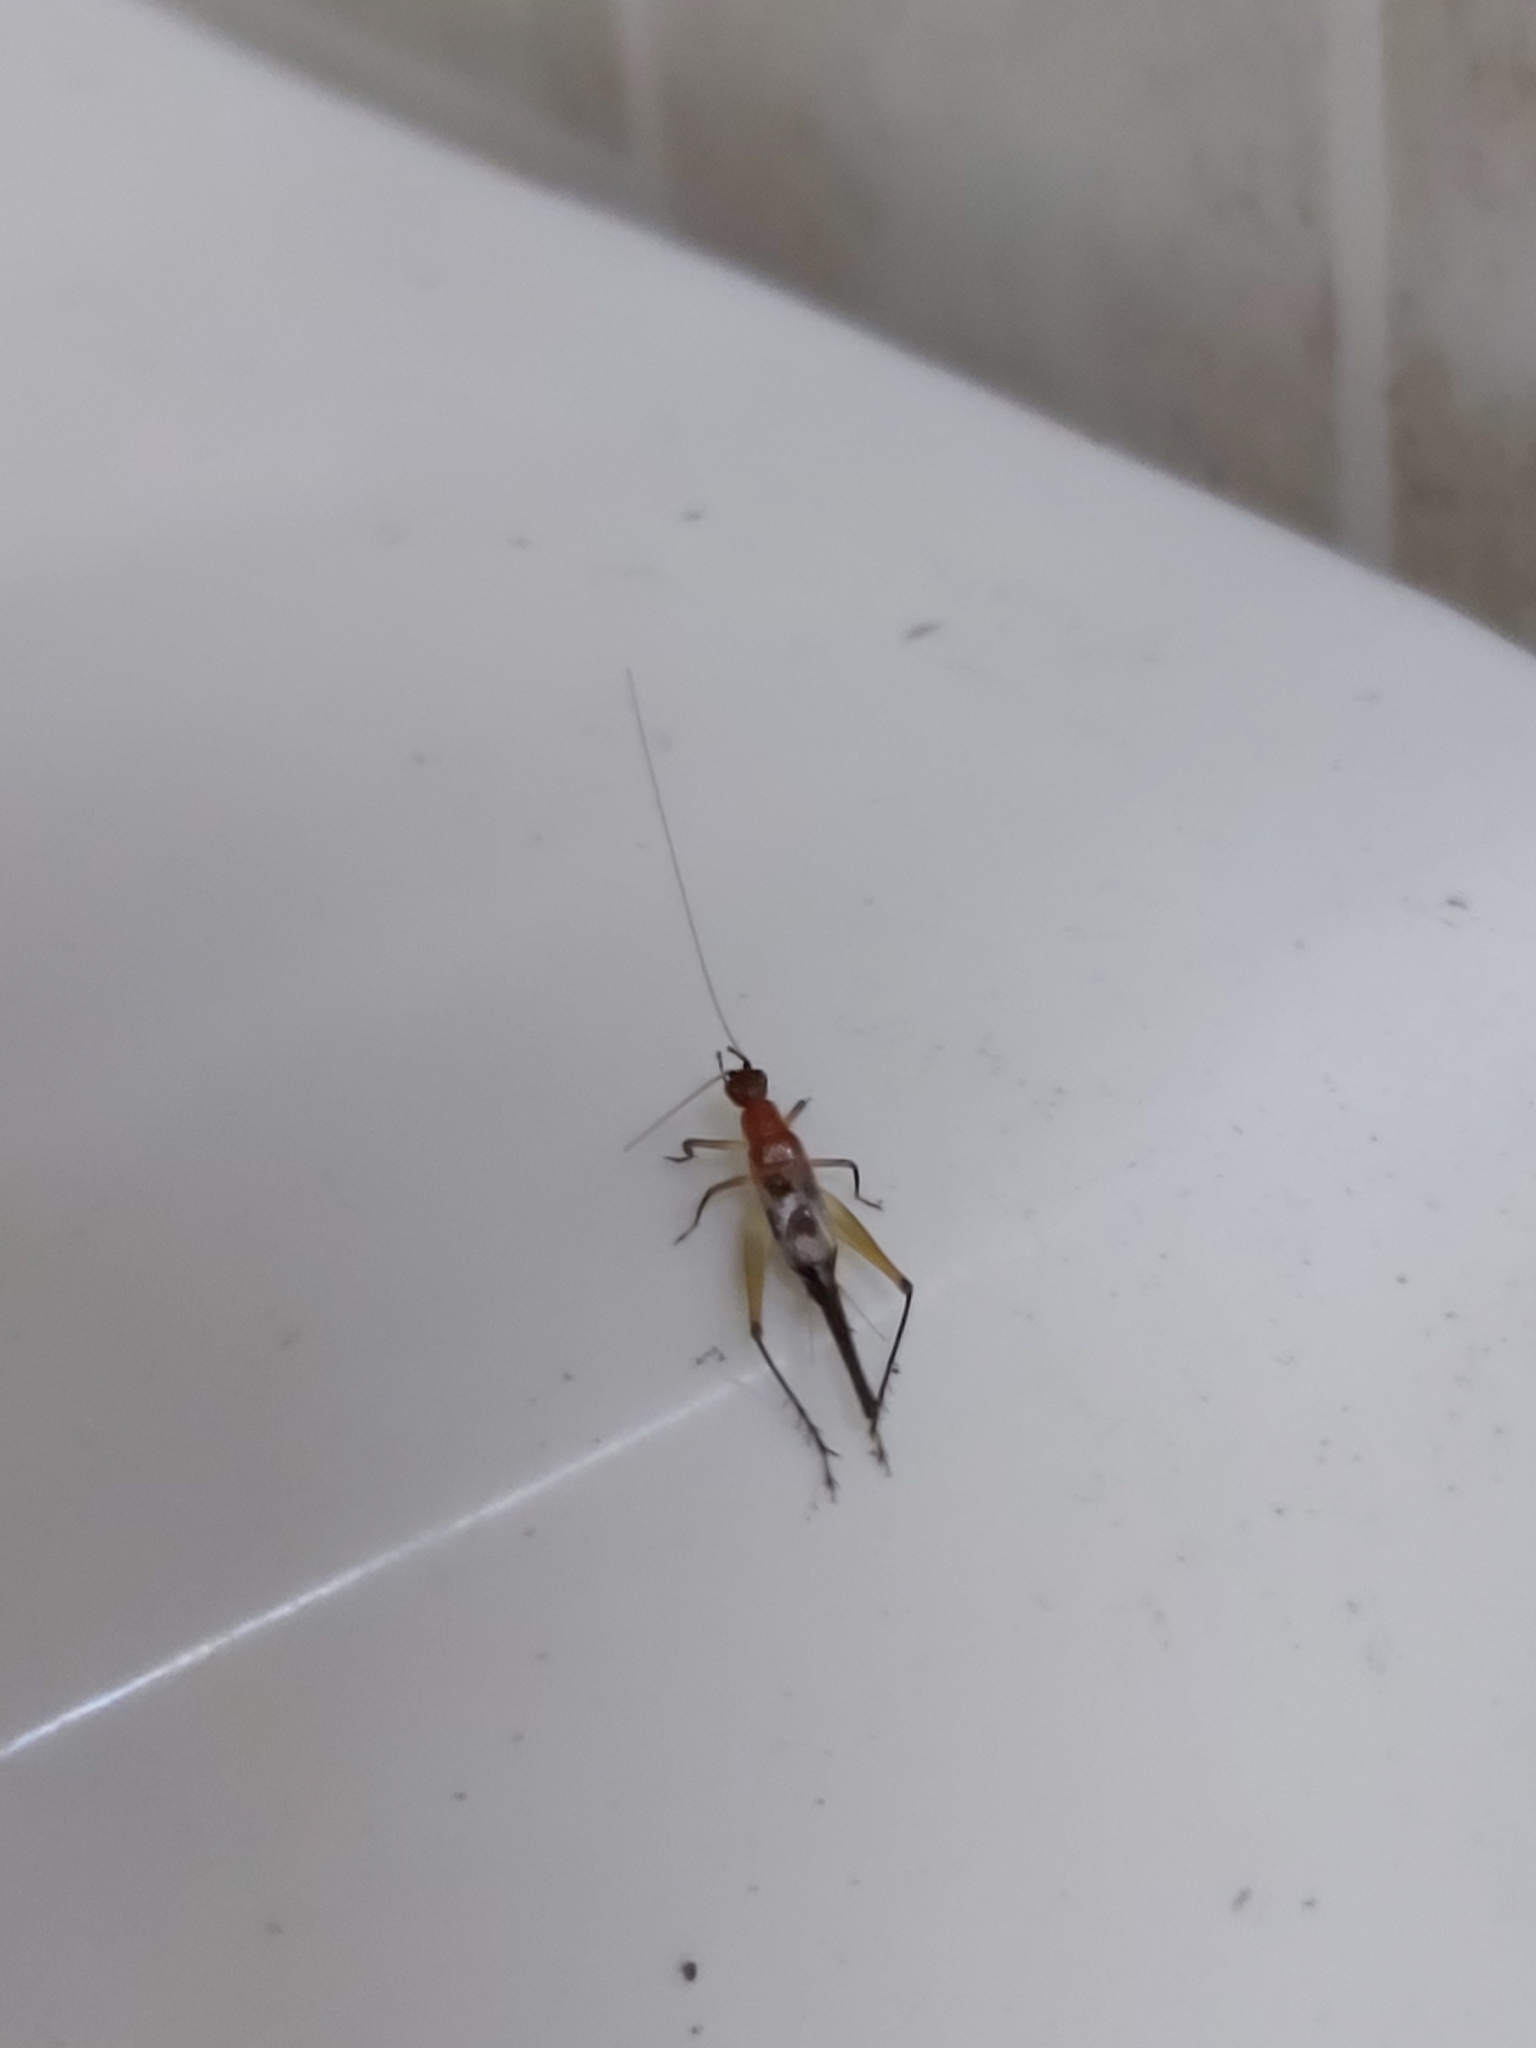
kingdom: Animalia
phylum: Arthropoda
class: Insecta
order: Orthoptera
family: Trigonidiidae
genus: Homoeoxipha
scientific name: Homoeoxipha lycoides
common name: Tinkling leaf-runner
